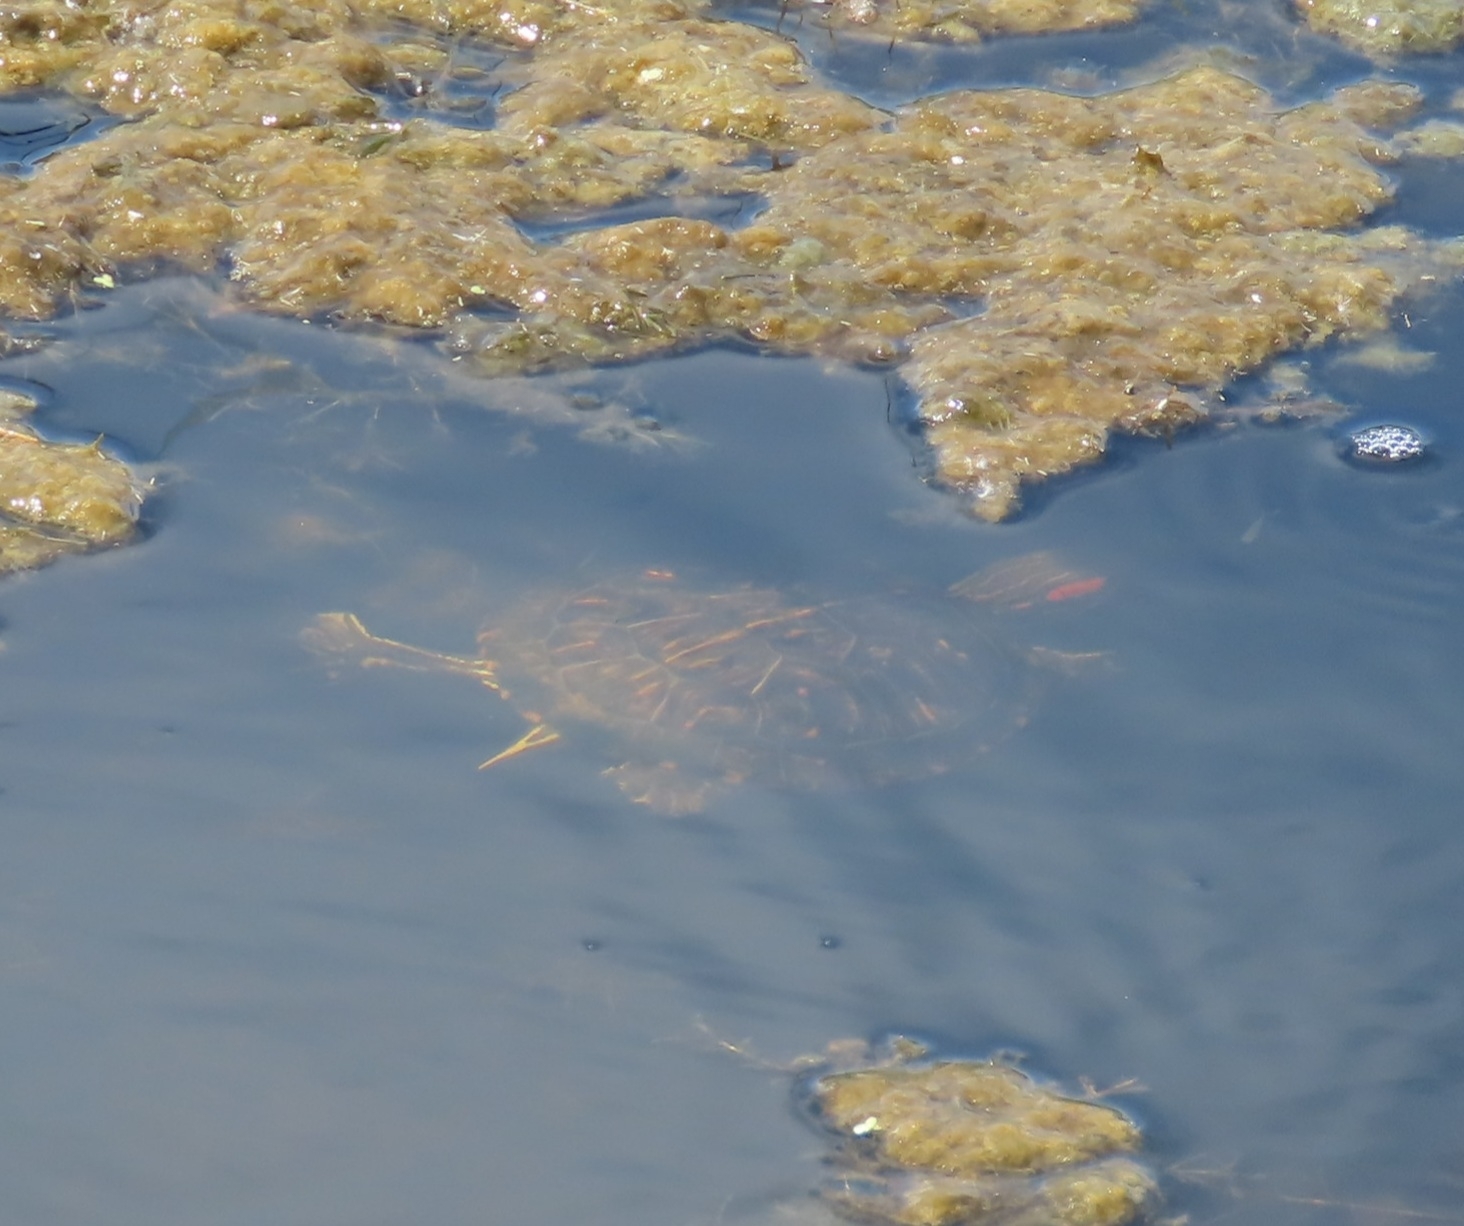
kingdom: Animalia
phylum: Chordata
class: Testudines
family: Emydidae
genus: Trachemys
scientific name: Trachemys scripta
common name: Slider
